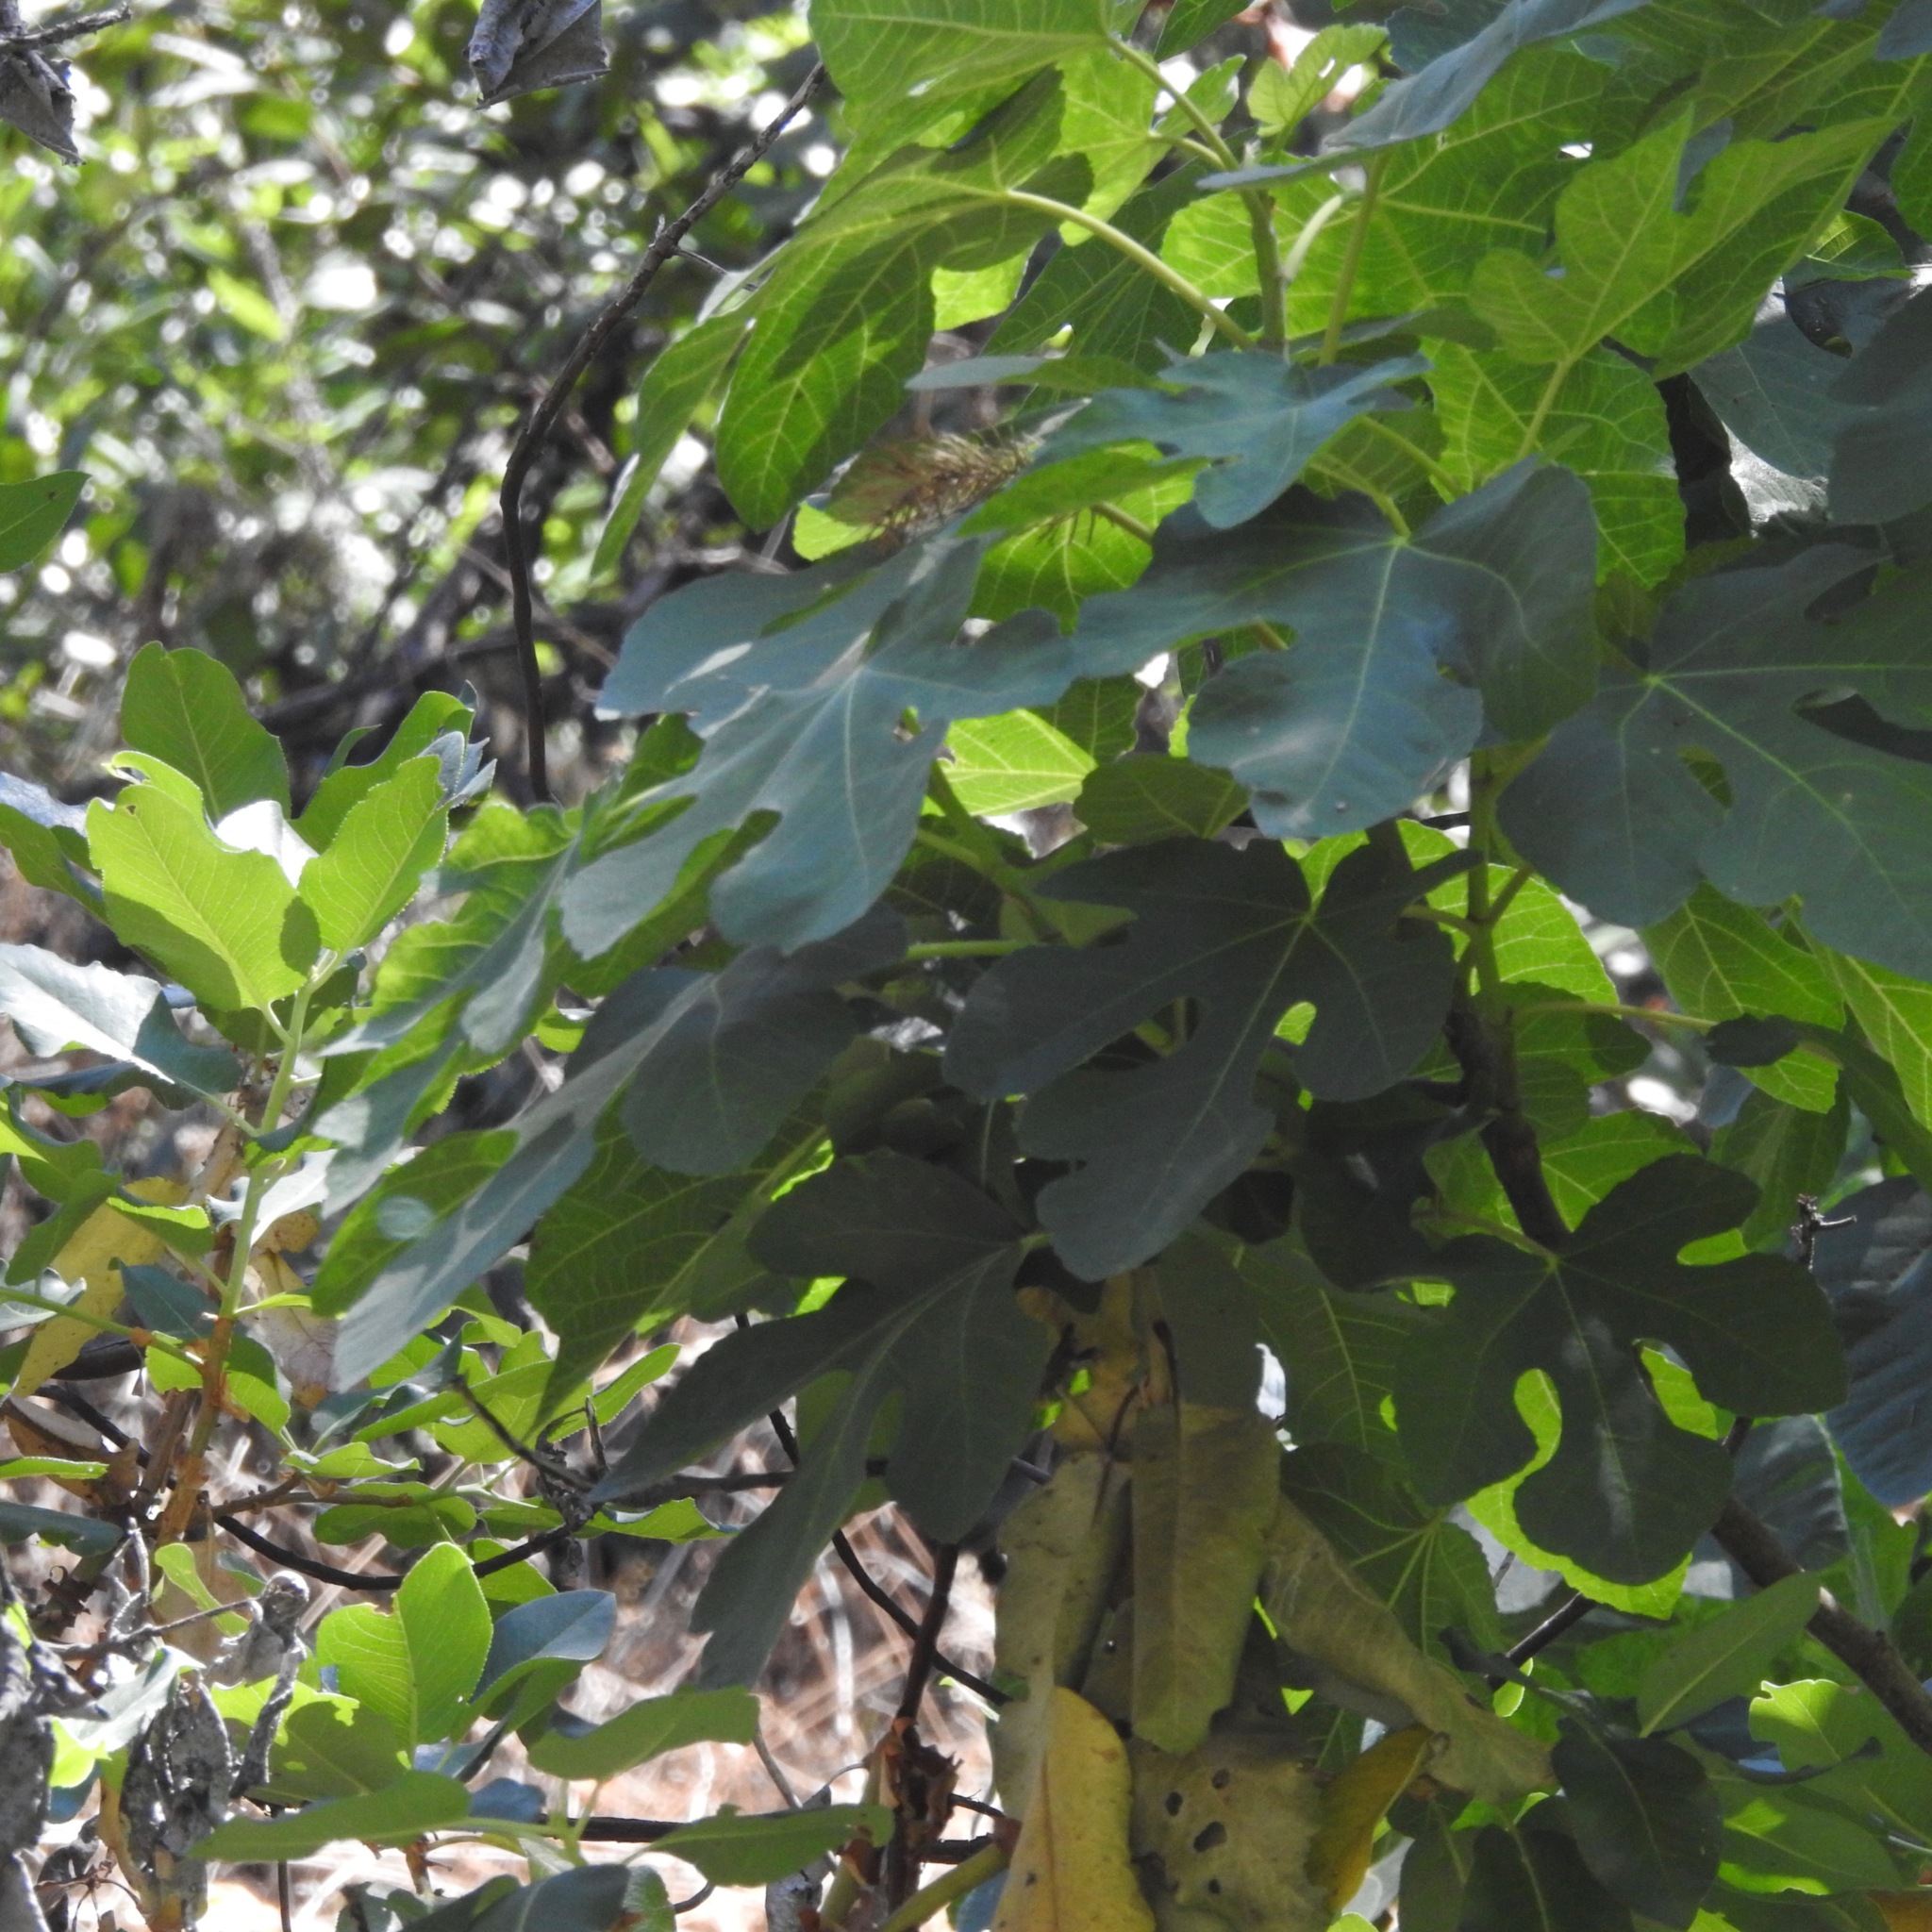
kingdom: Plantae
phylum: Tracheophyta
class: Magnoliopsida
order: Rosales
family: Moraceae
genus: Ficus
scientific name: Ficus carica
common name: Fig
